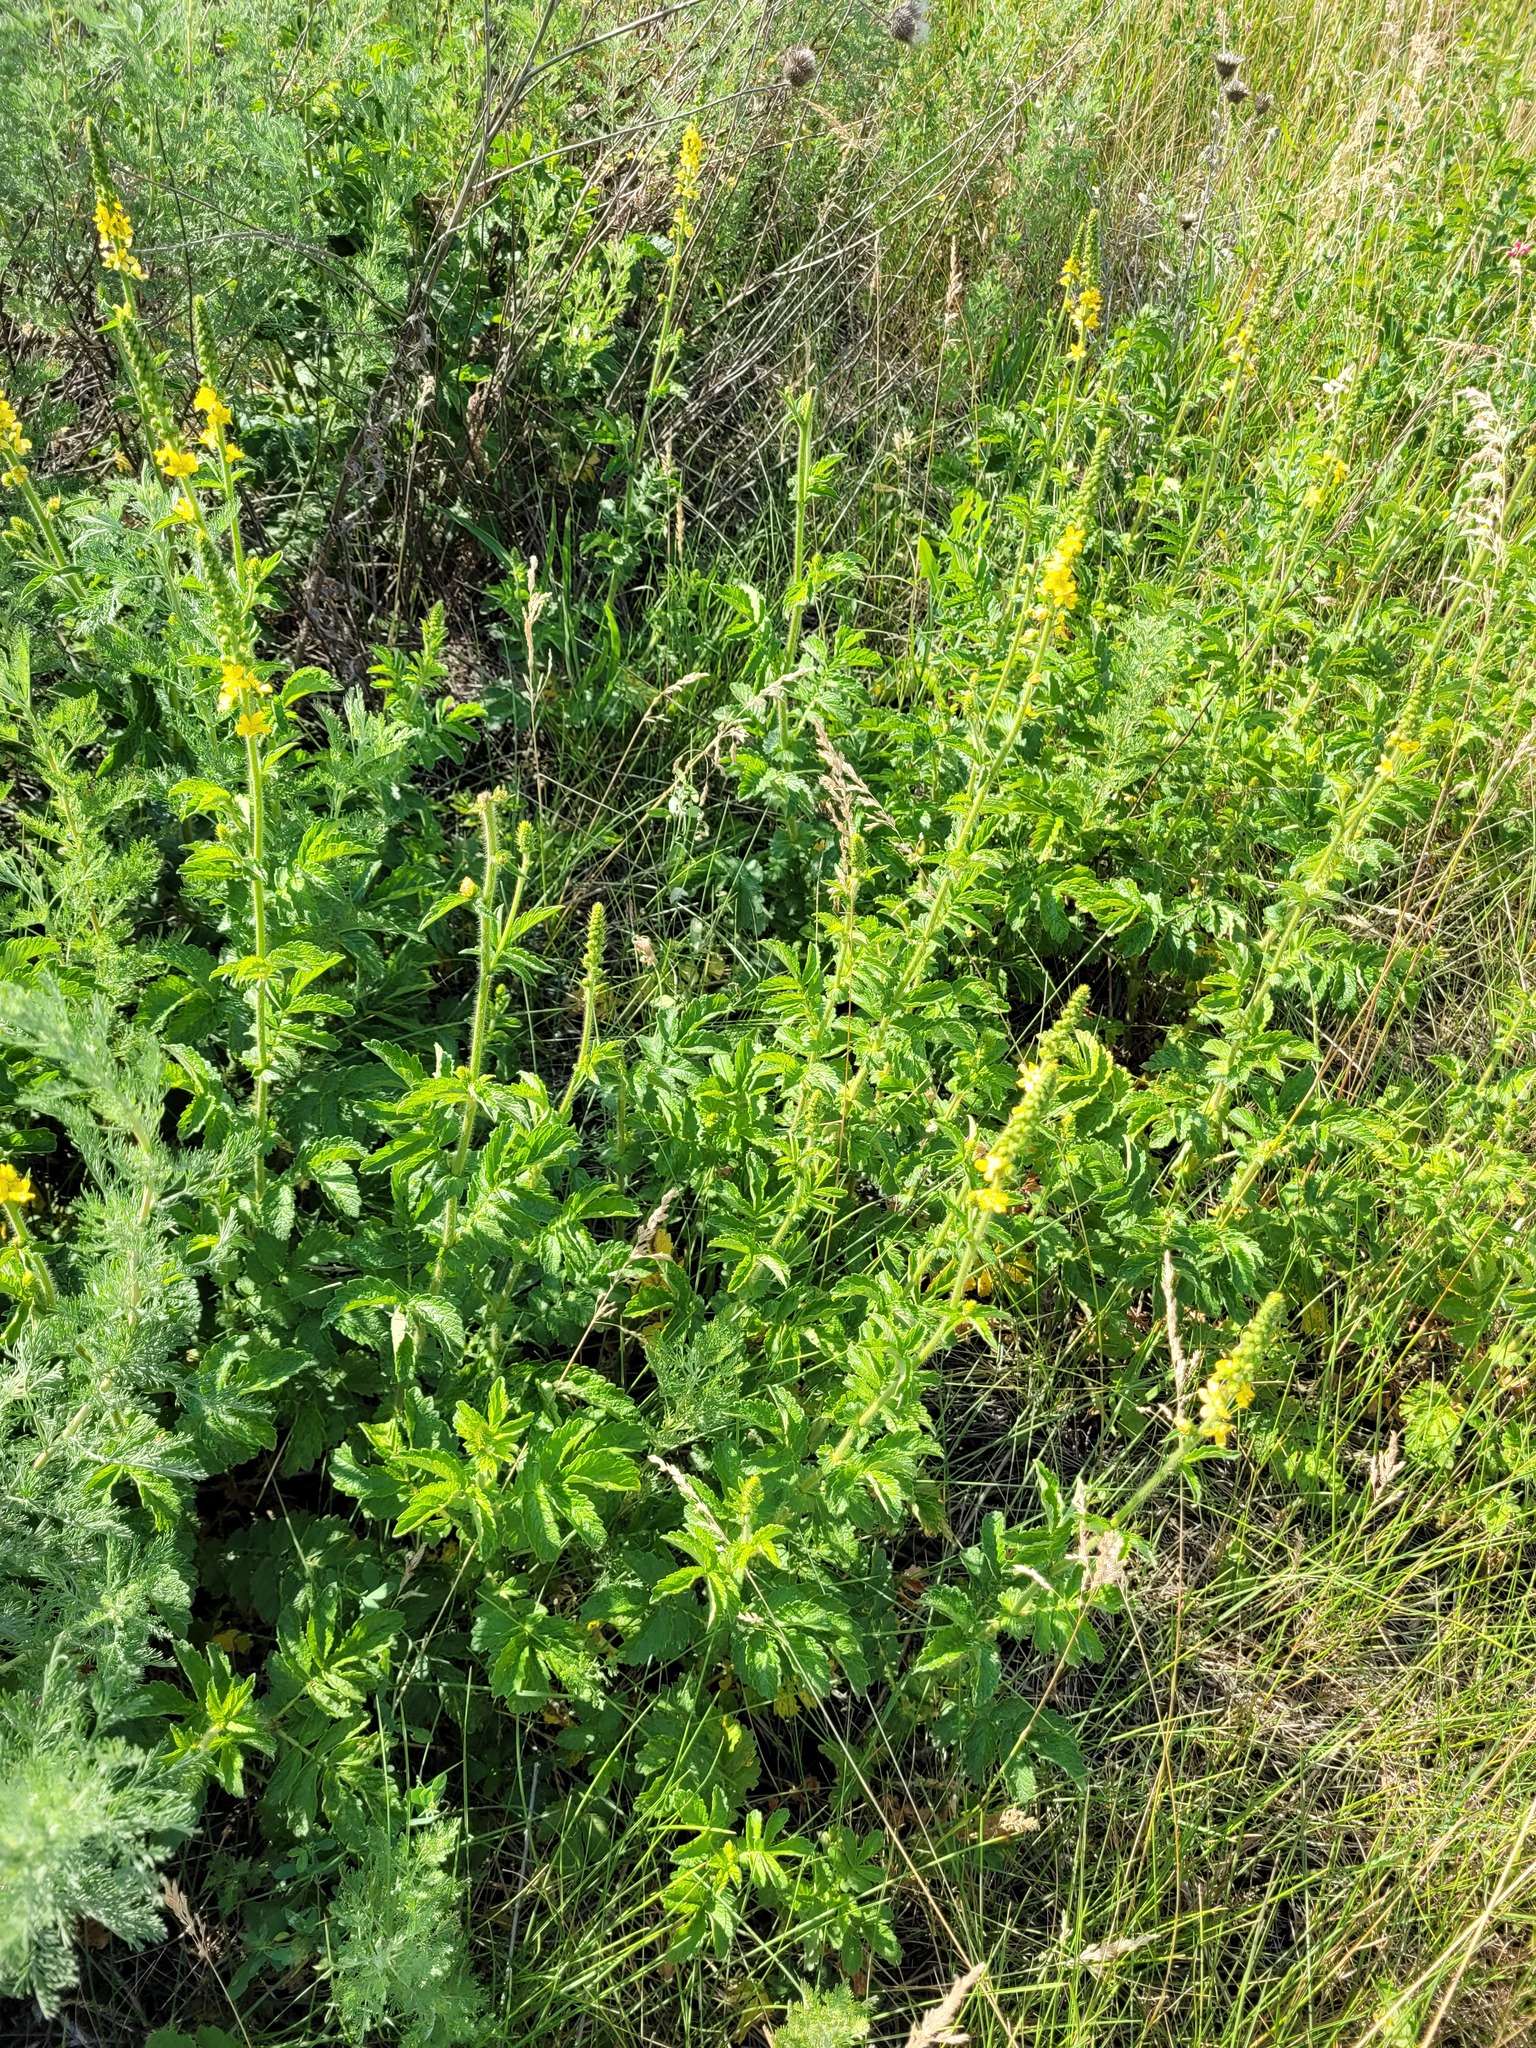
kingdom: Plantae
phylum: Tracheophyta
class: Magnoliopsida
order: Rosales
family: Rosaceae
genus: Agrimonia
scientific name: Agrimonia eupatoria
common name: Agrimony
